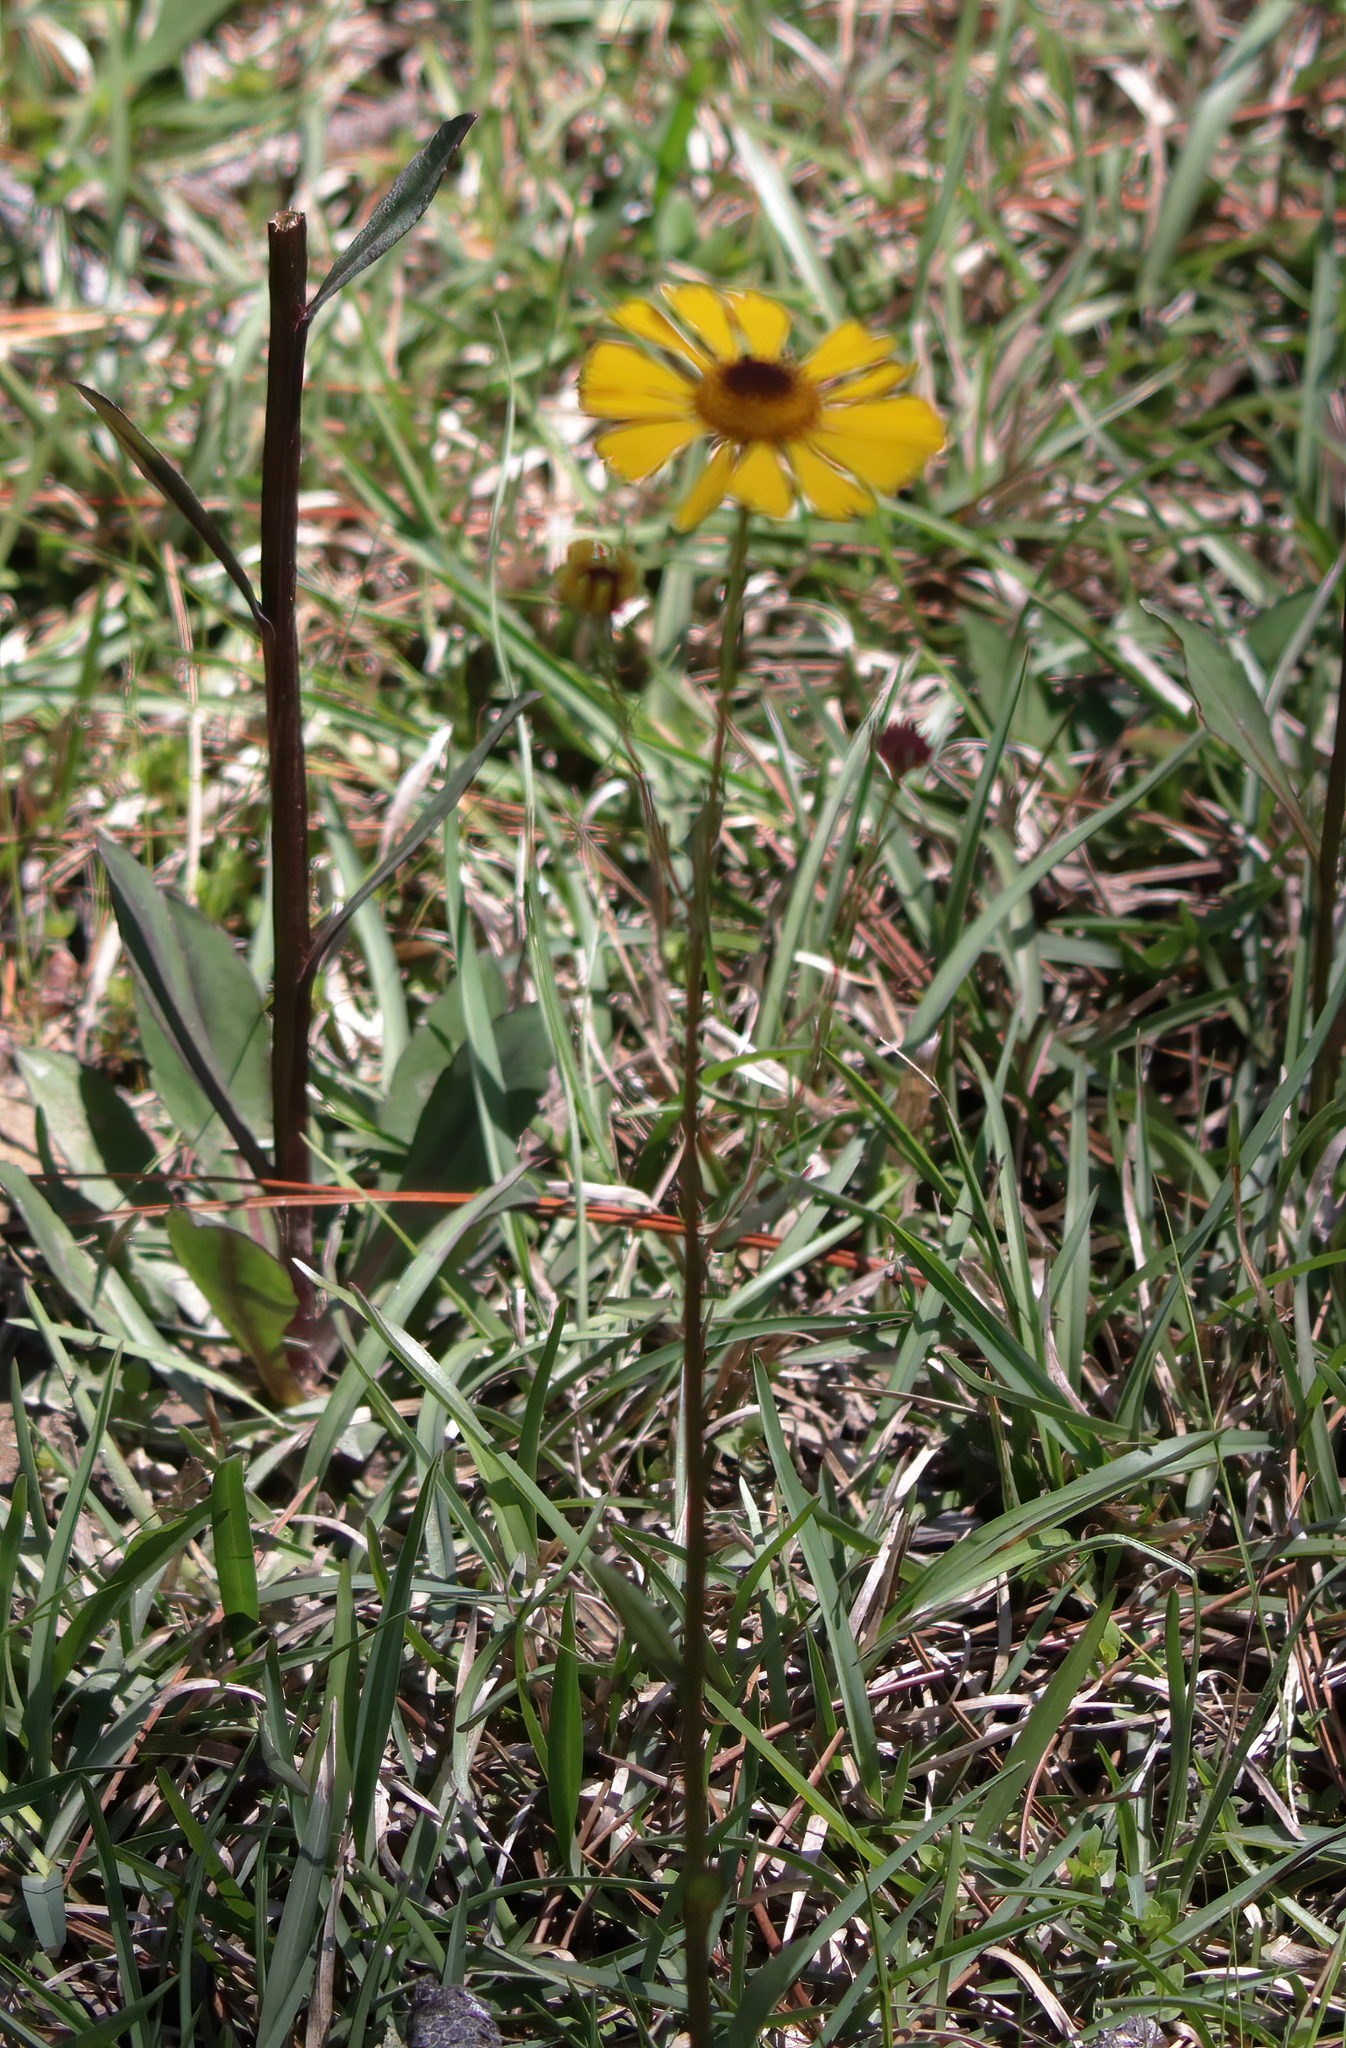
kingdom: Plantae
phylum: Tracheophyta
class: Magnoliopsida
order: Asterales
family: Asteraceae
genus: Helenium
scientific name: Helenium brevifolium
